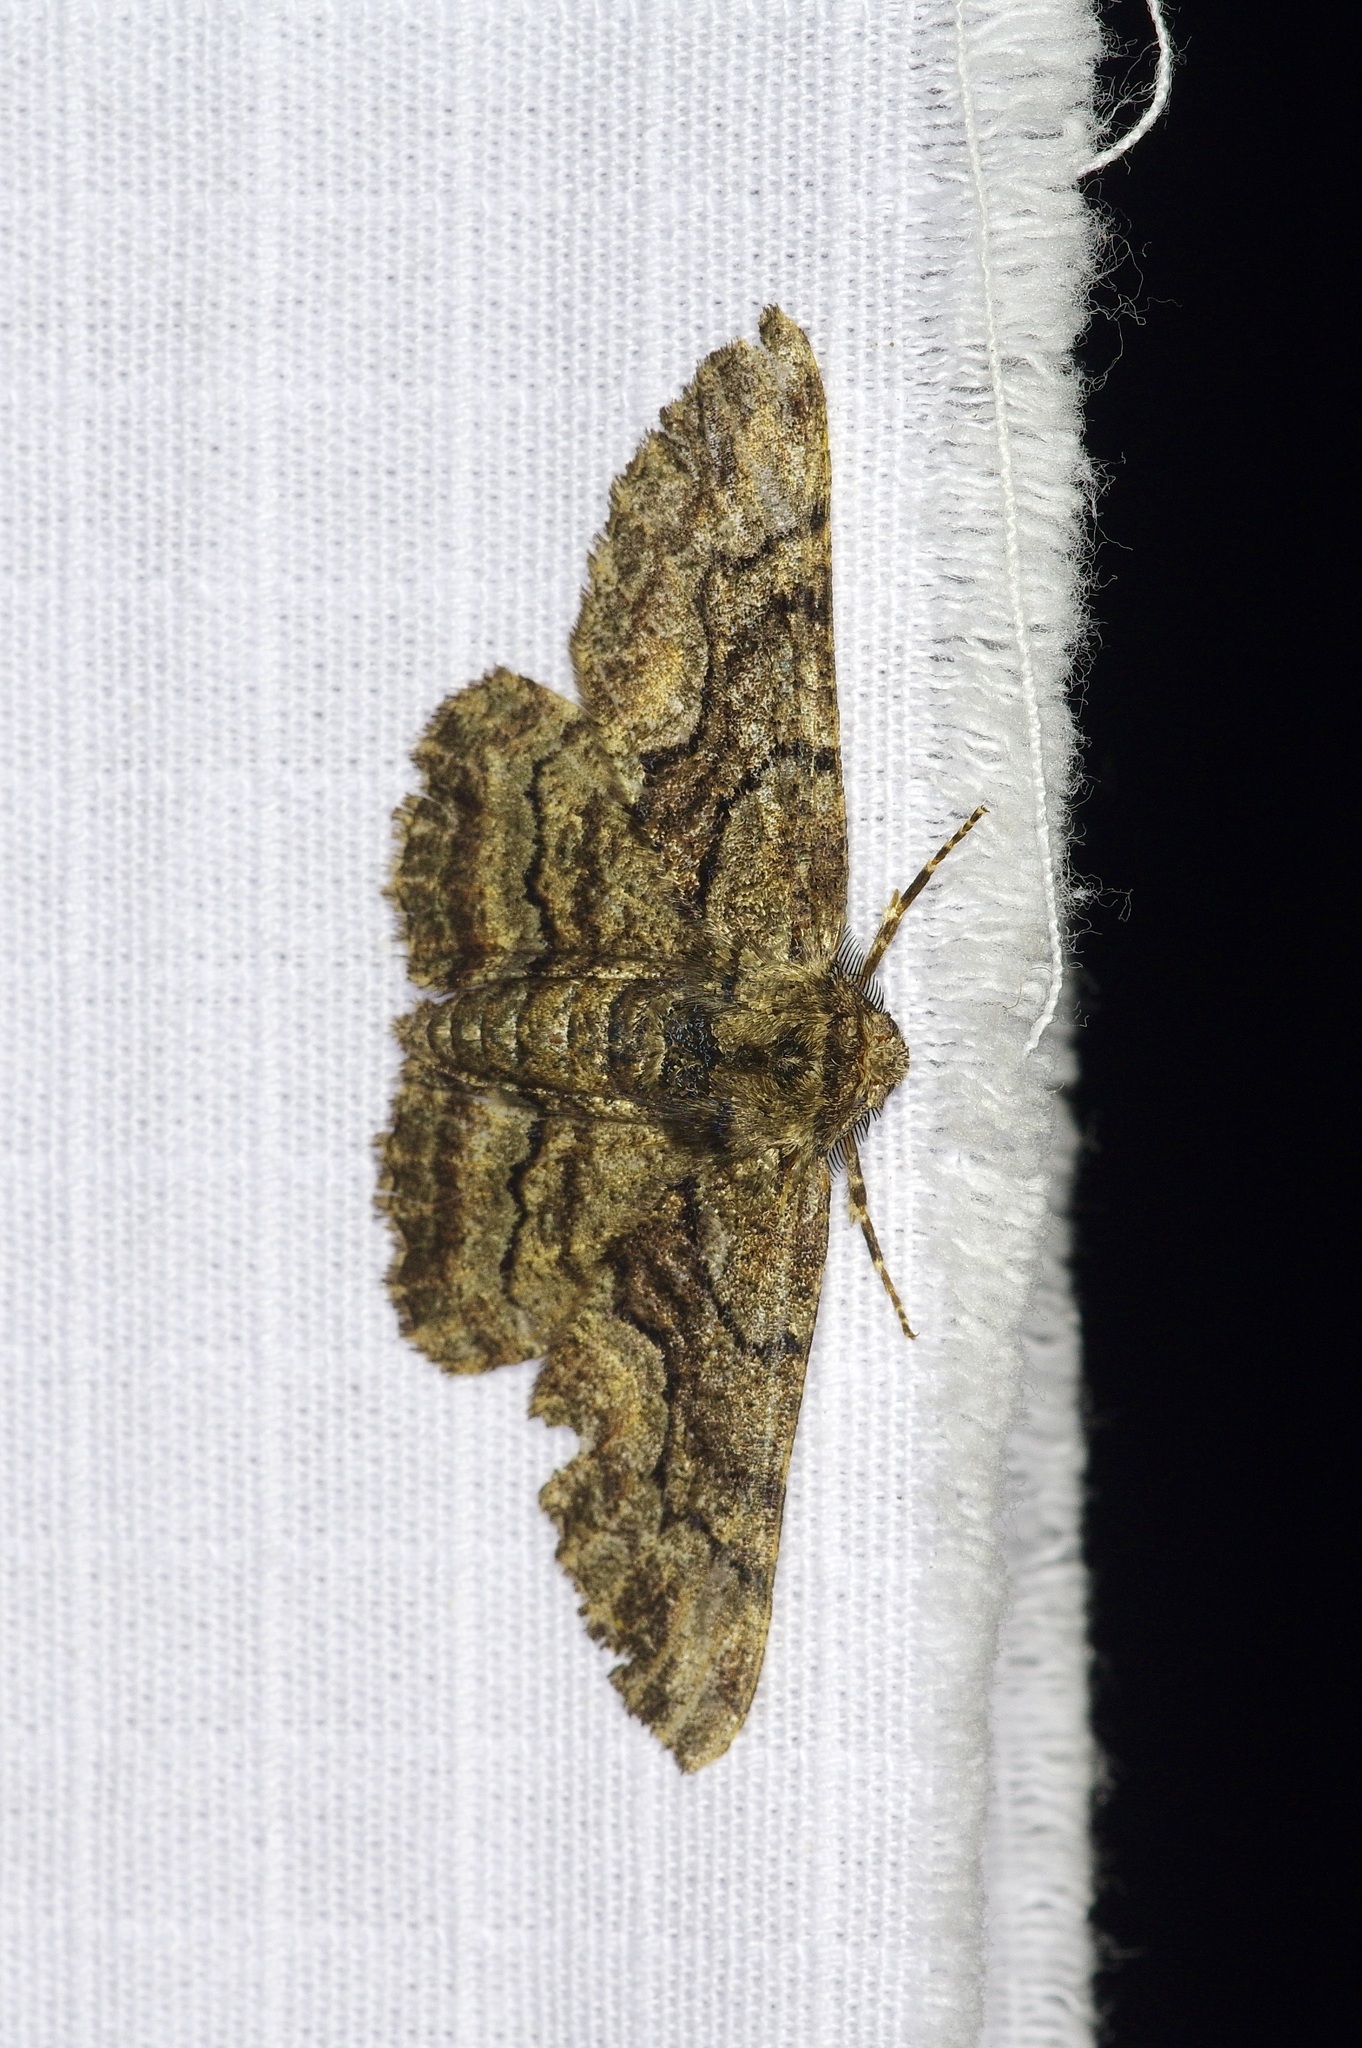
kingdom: Animalia
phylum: Arthropoda
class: Insecta
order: Lepidoptera
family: Geometridae
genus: Phaeoura
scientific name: Phaeoura quernaria
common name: Oak beauty
